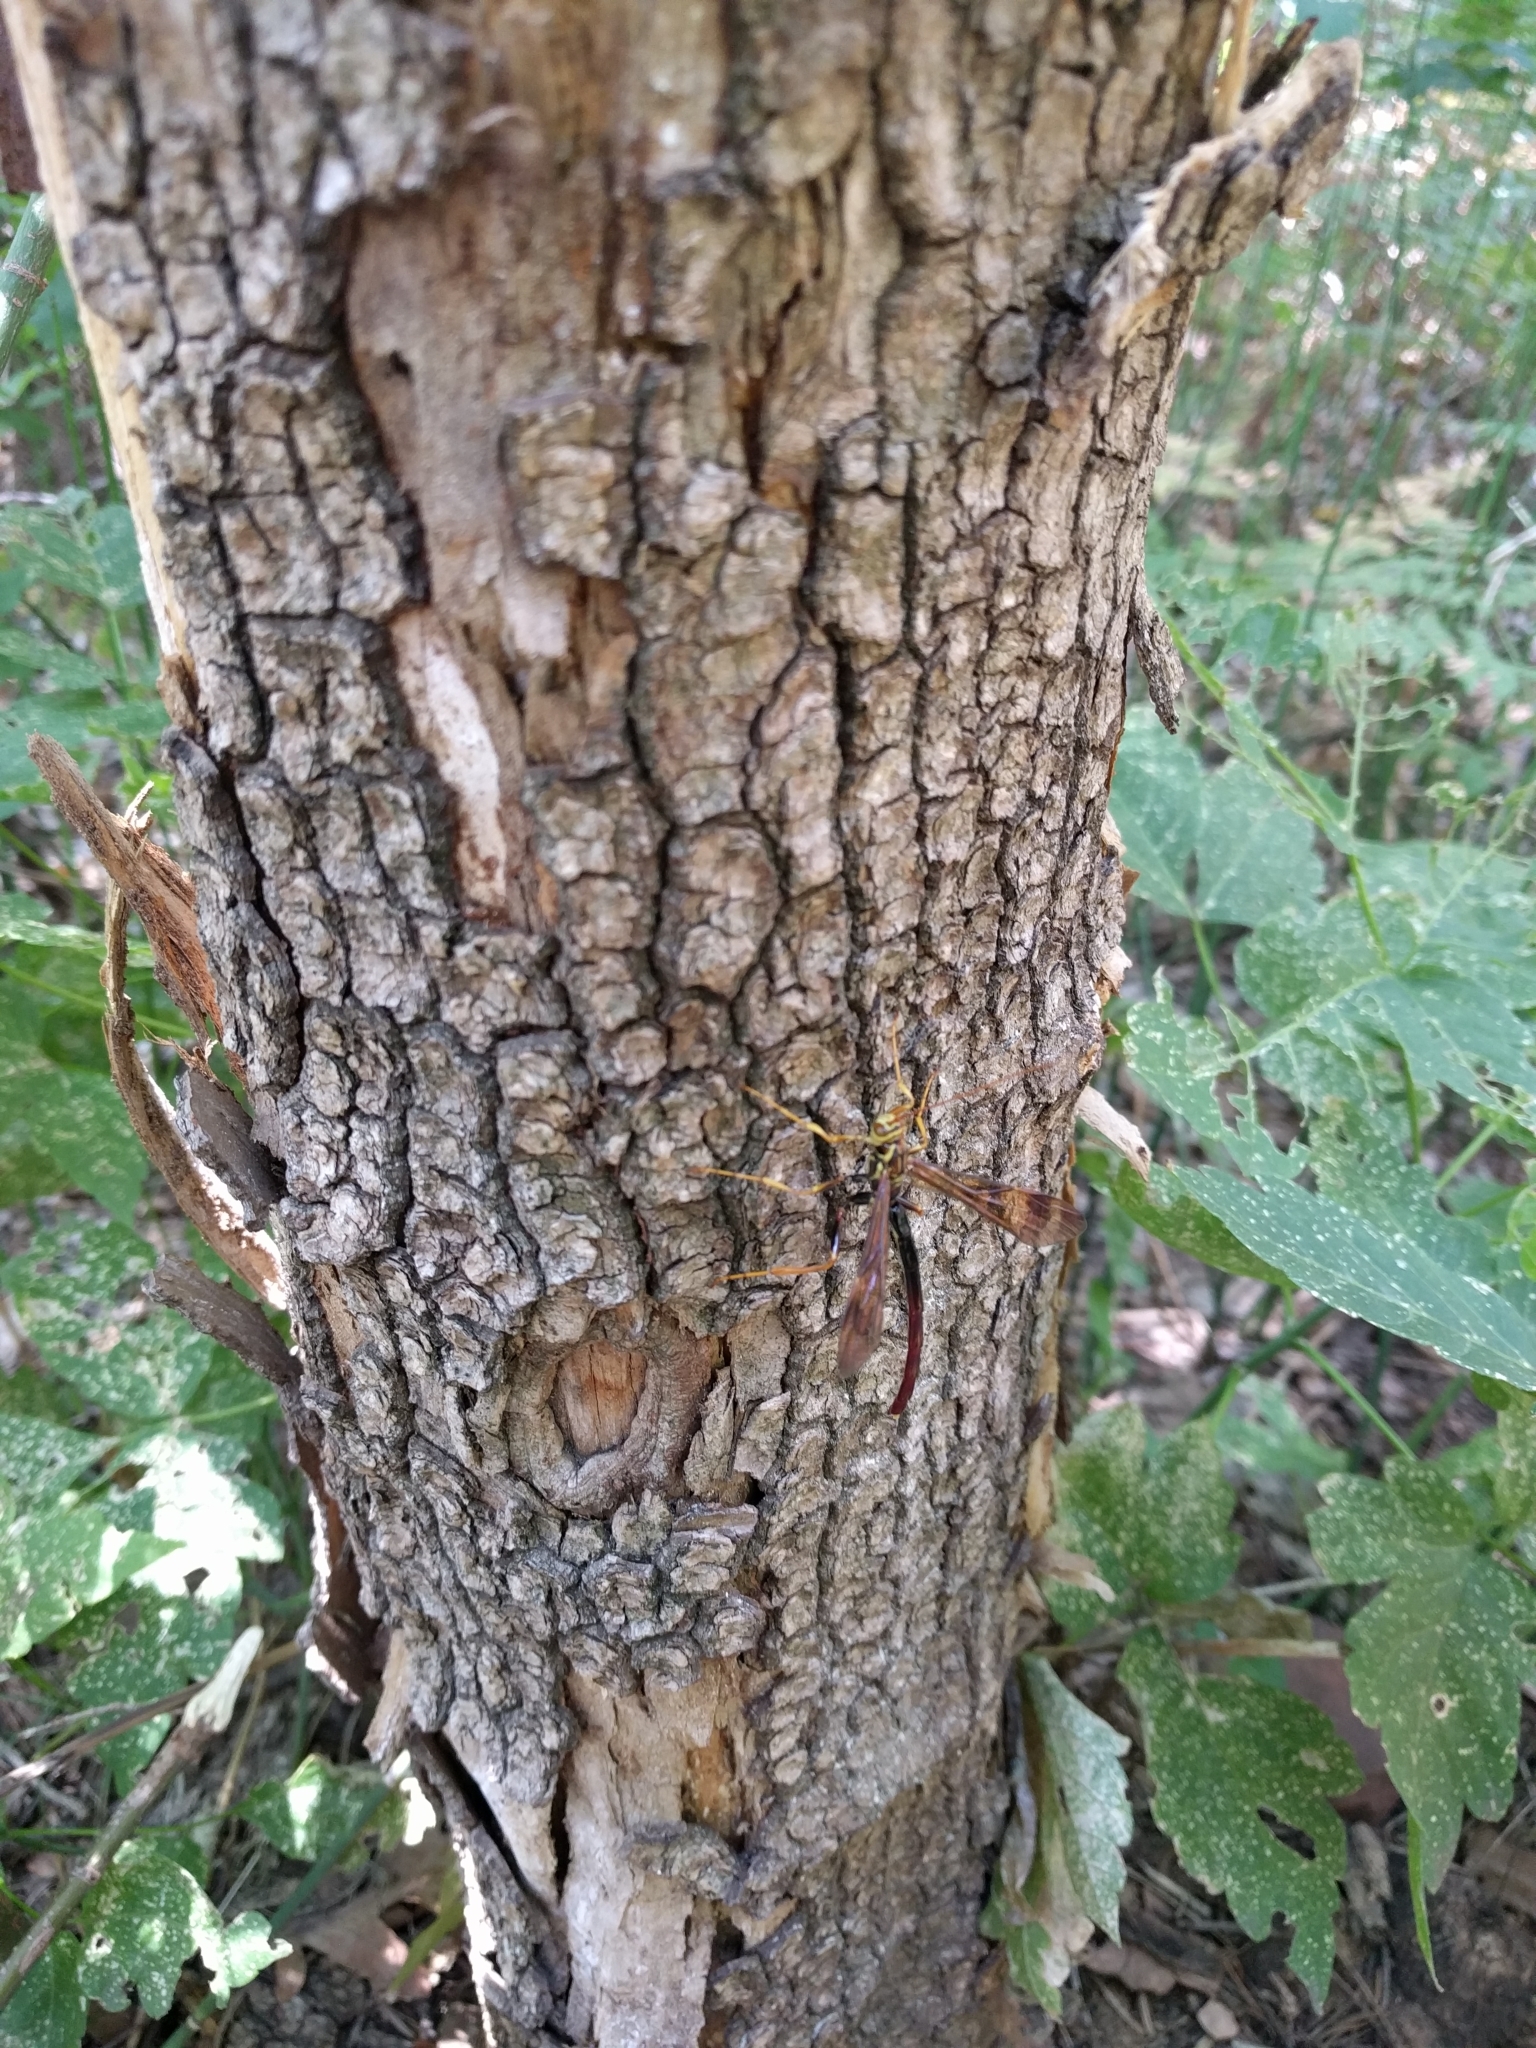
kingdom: Animalia
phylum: Arthropoda
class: Insecta
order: Hymenoptera
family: Ichneumonidae
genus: Megarhyssa
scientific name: Megarhyssa macrura
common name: Long-tailed giant ichneumonid wasp
